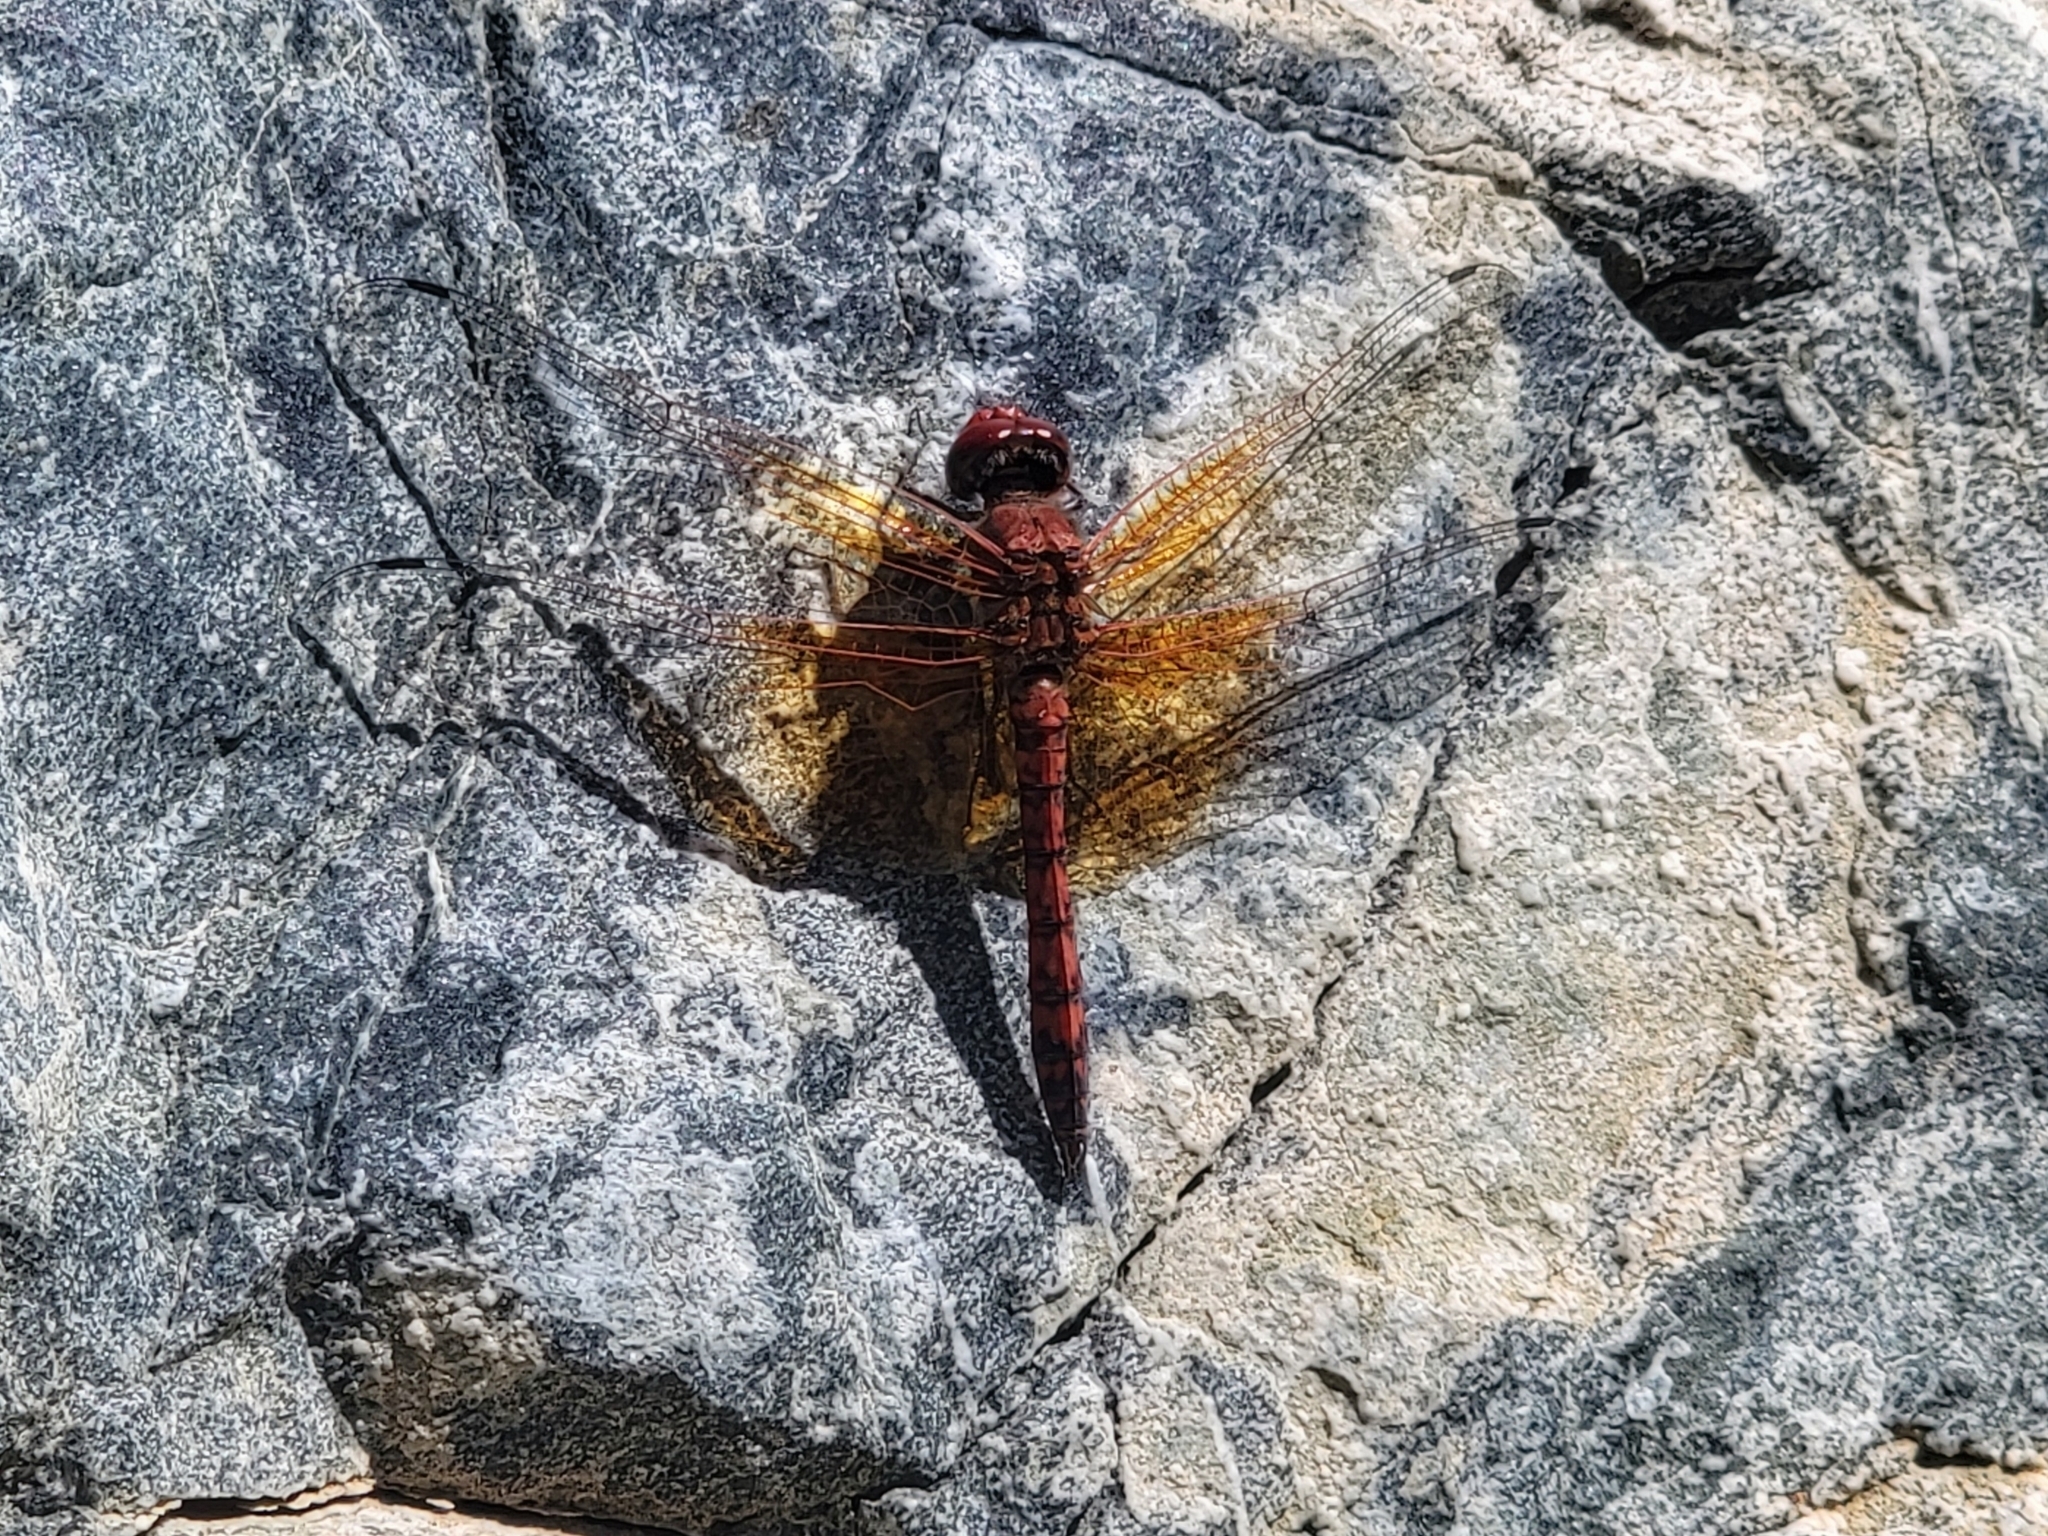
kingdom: Animalia
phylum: Arthropoda
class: Insecta
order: Odonata
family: Libellulidae
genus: Paltothemis
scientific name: Paltothemis lineatipes
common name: Red rock skimmer
